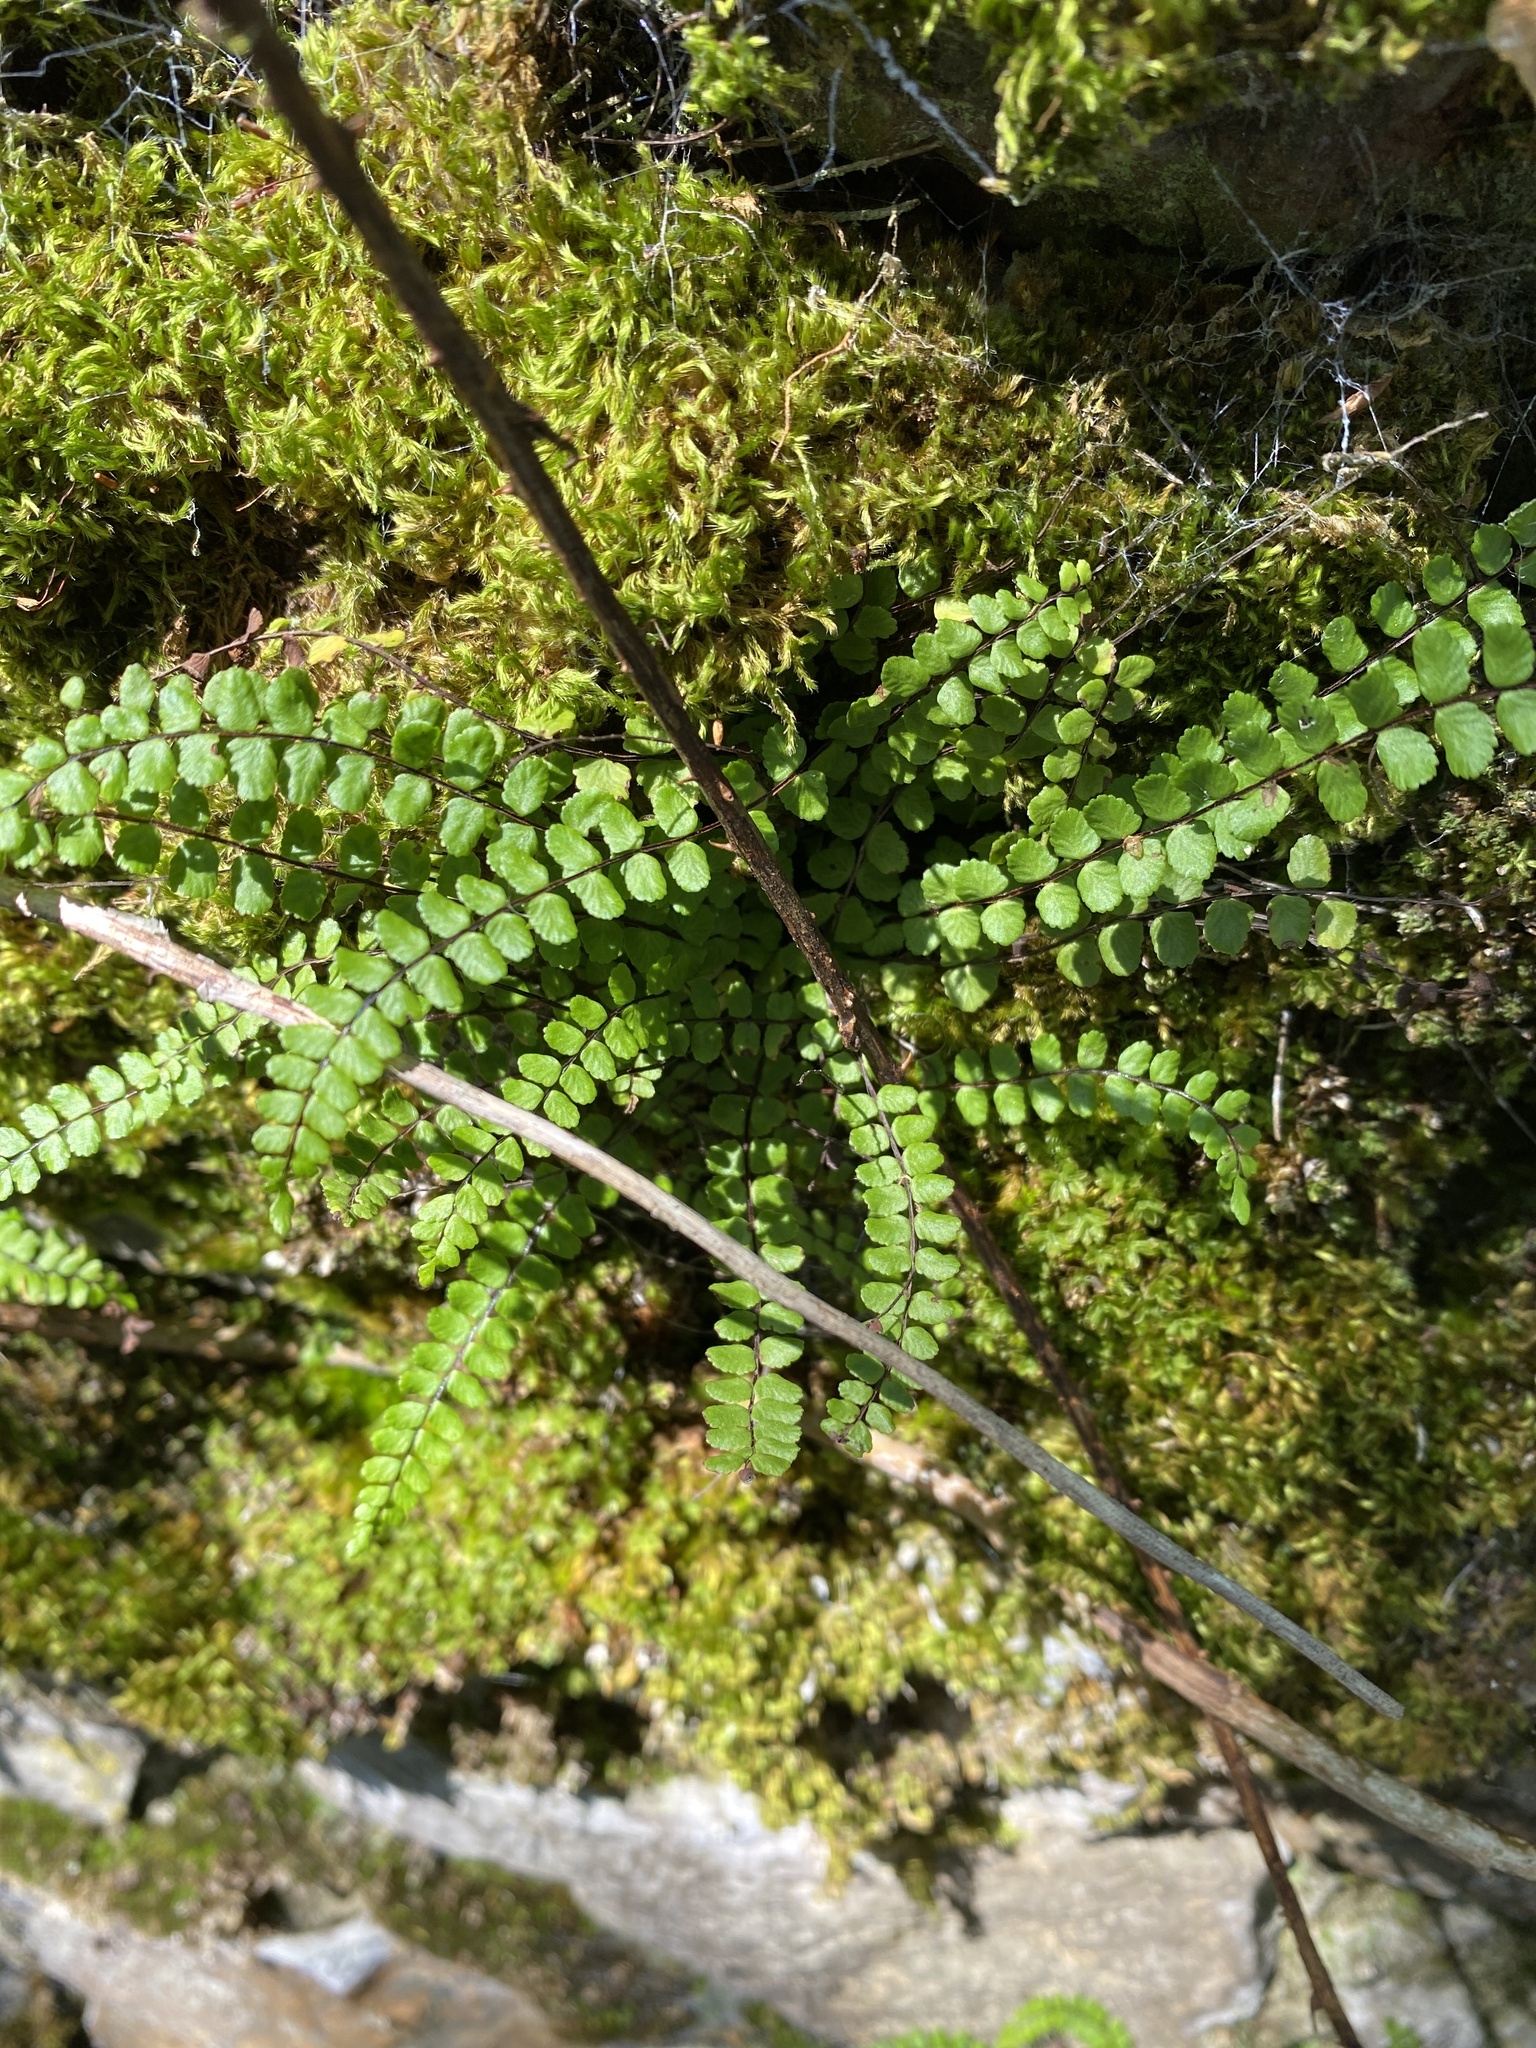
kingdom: Plantae
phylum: Tracheophyta
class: Polypodiopsida
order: Polypodiales
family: Aspleniaceae
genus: Asplenium
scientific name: Asplenium trichomanes
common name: Maidenhair spleenwort
